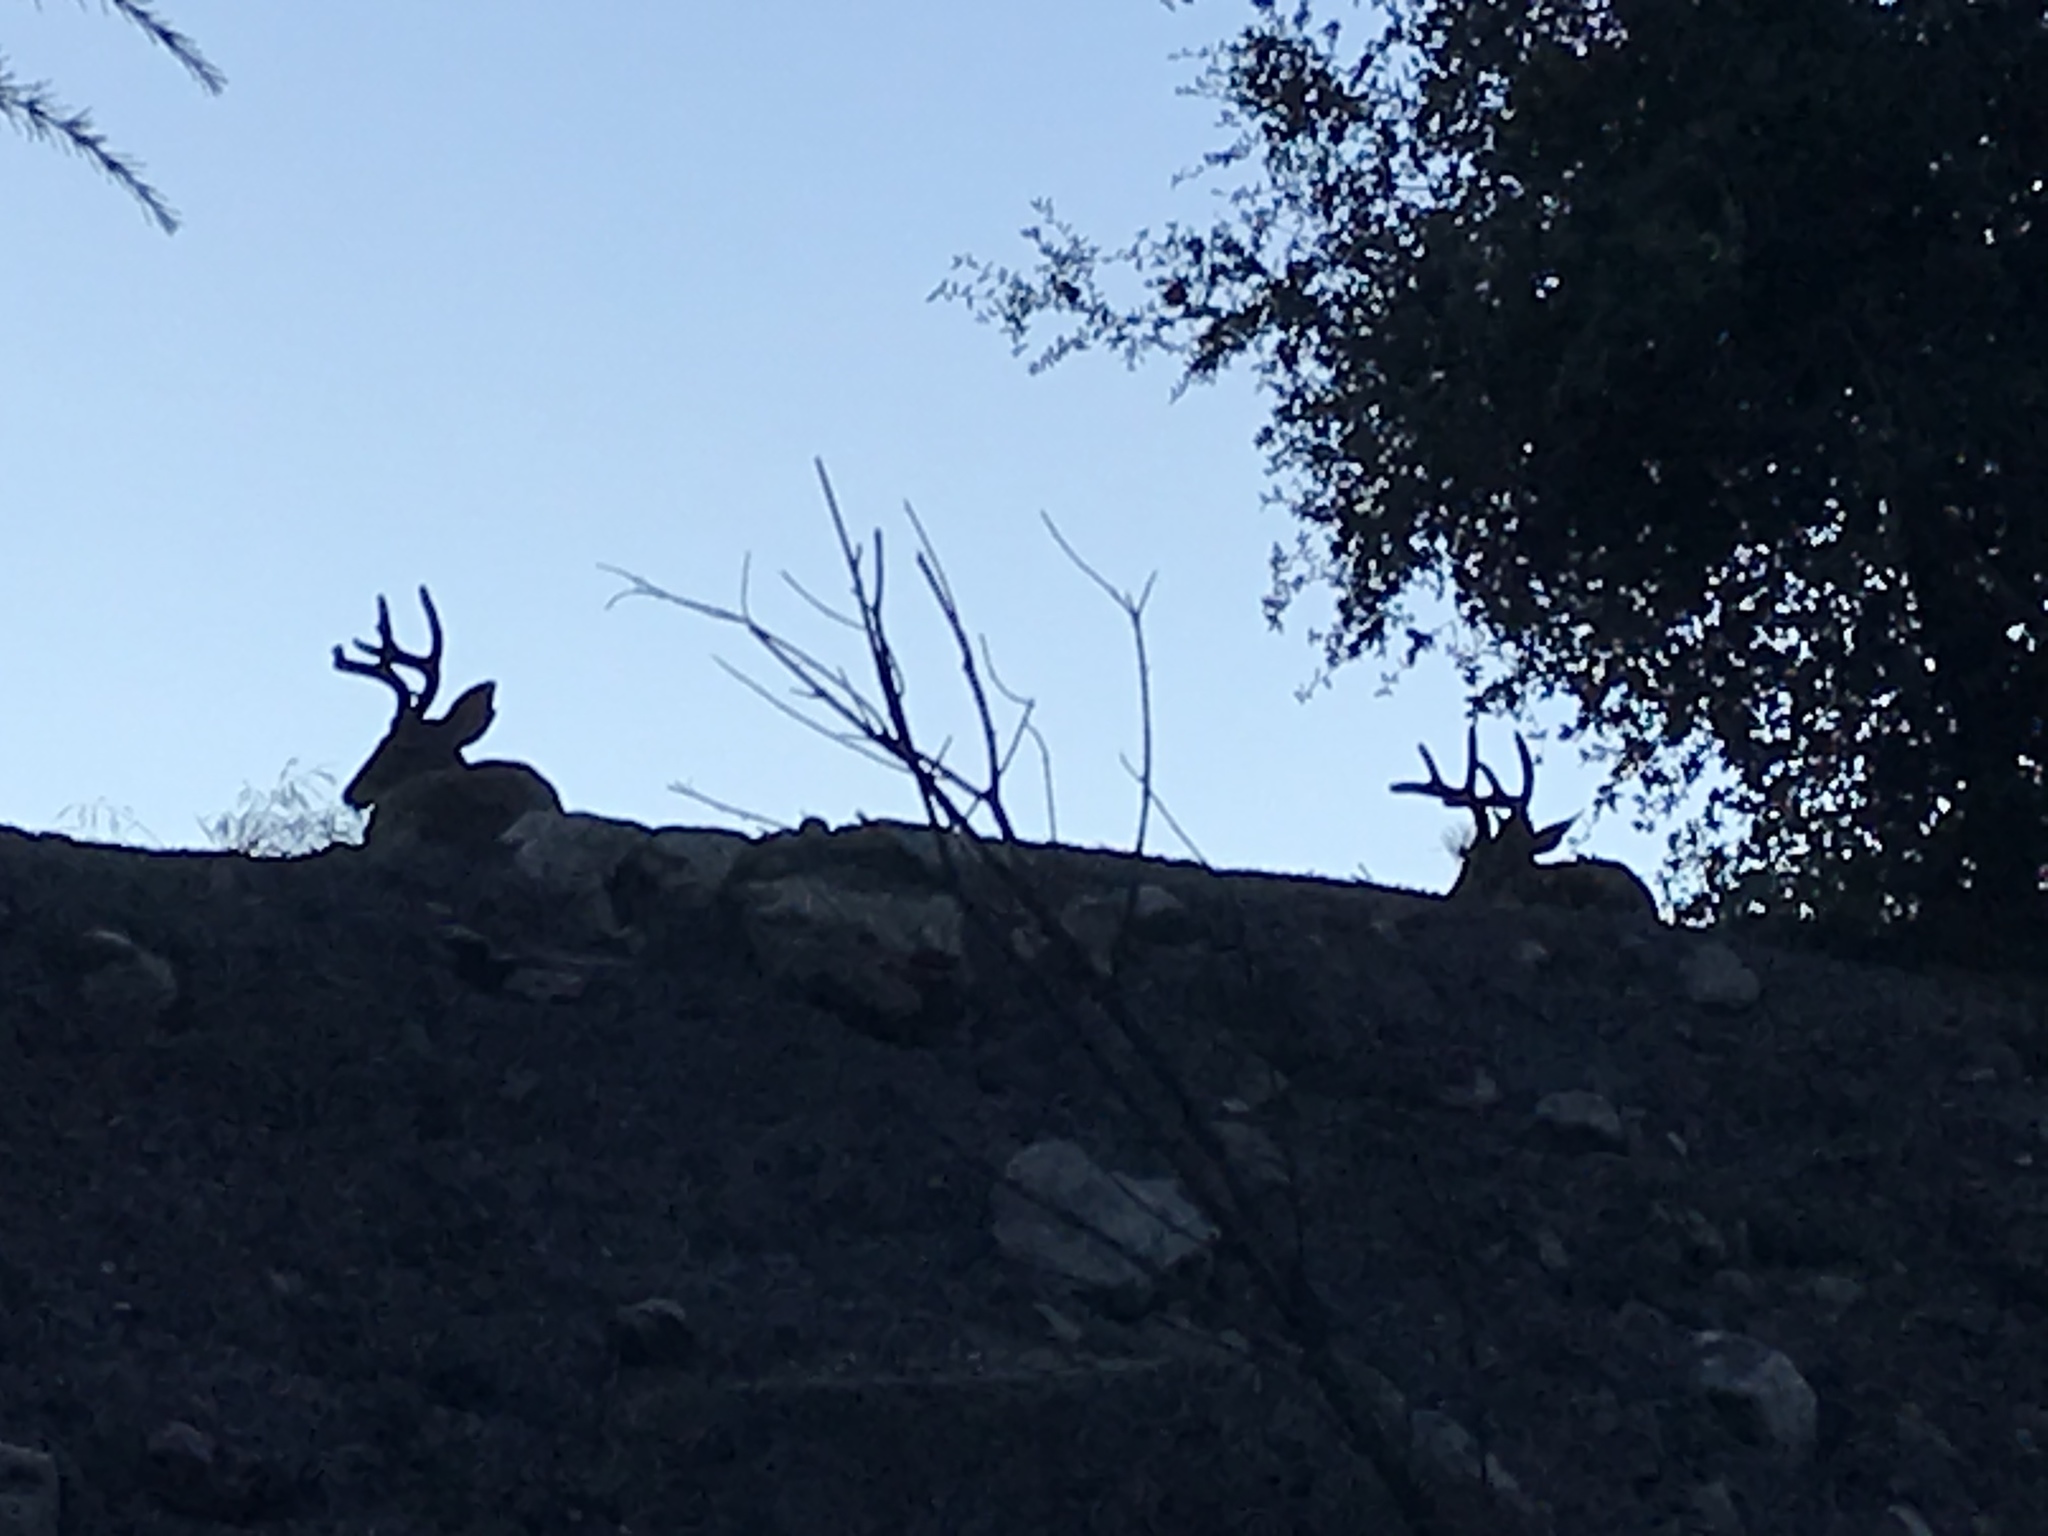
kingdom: Animalia
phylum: Chordata
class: Mammalia
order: Artiodactyla
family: Cervidae
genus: Odocoileus
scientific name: Odocoileus hemionus
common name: Mule deer
